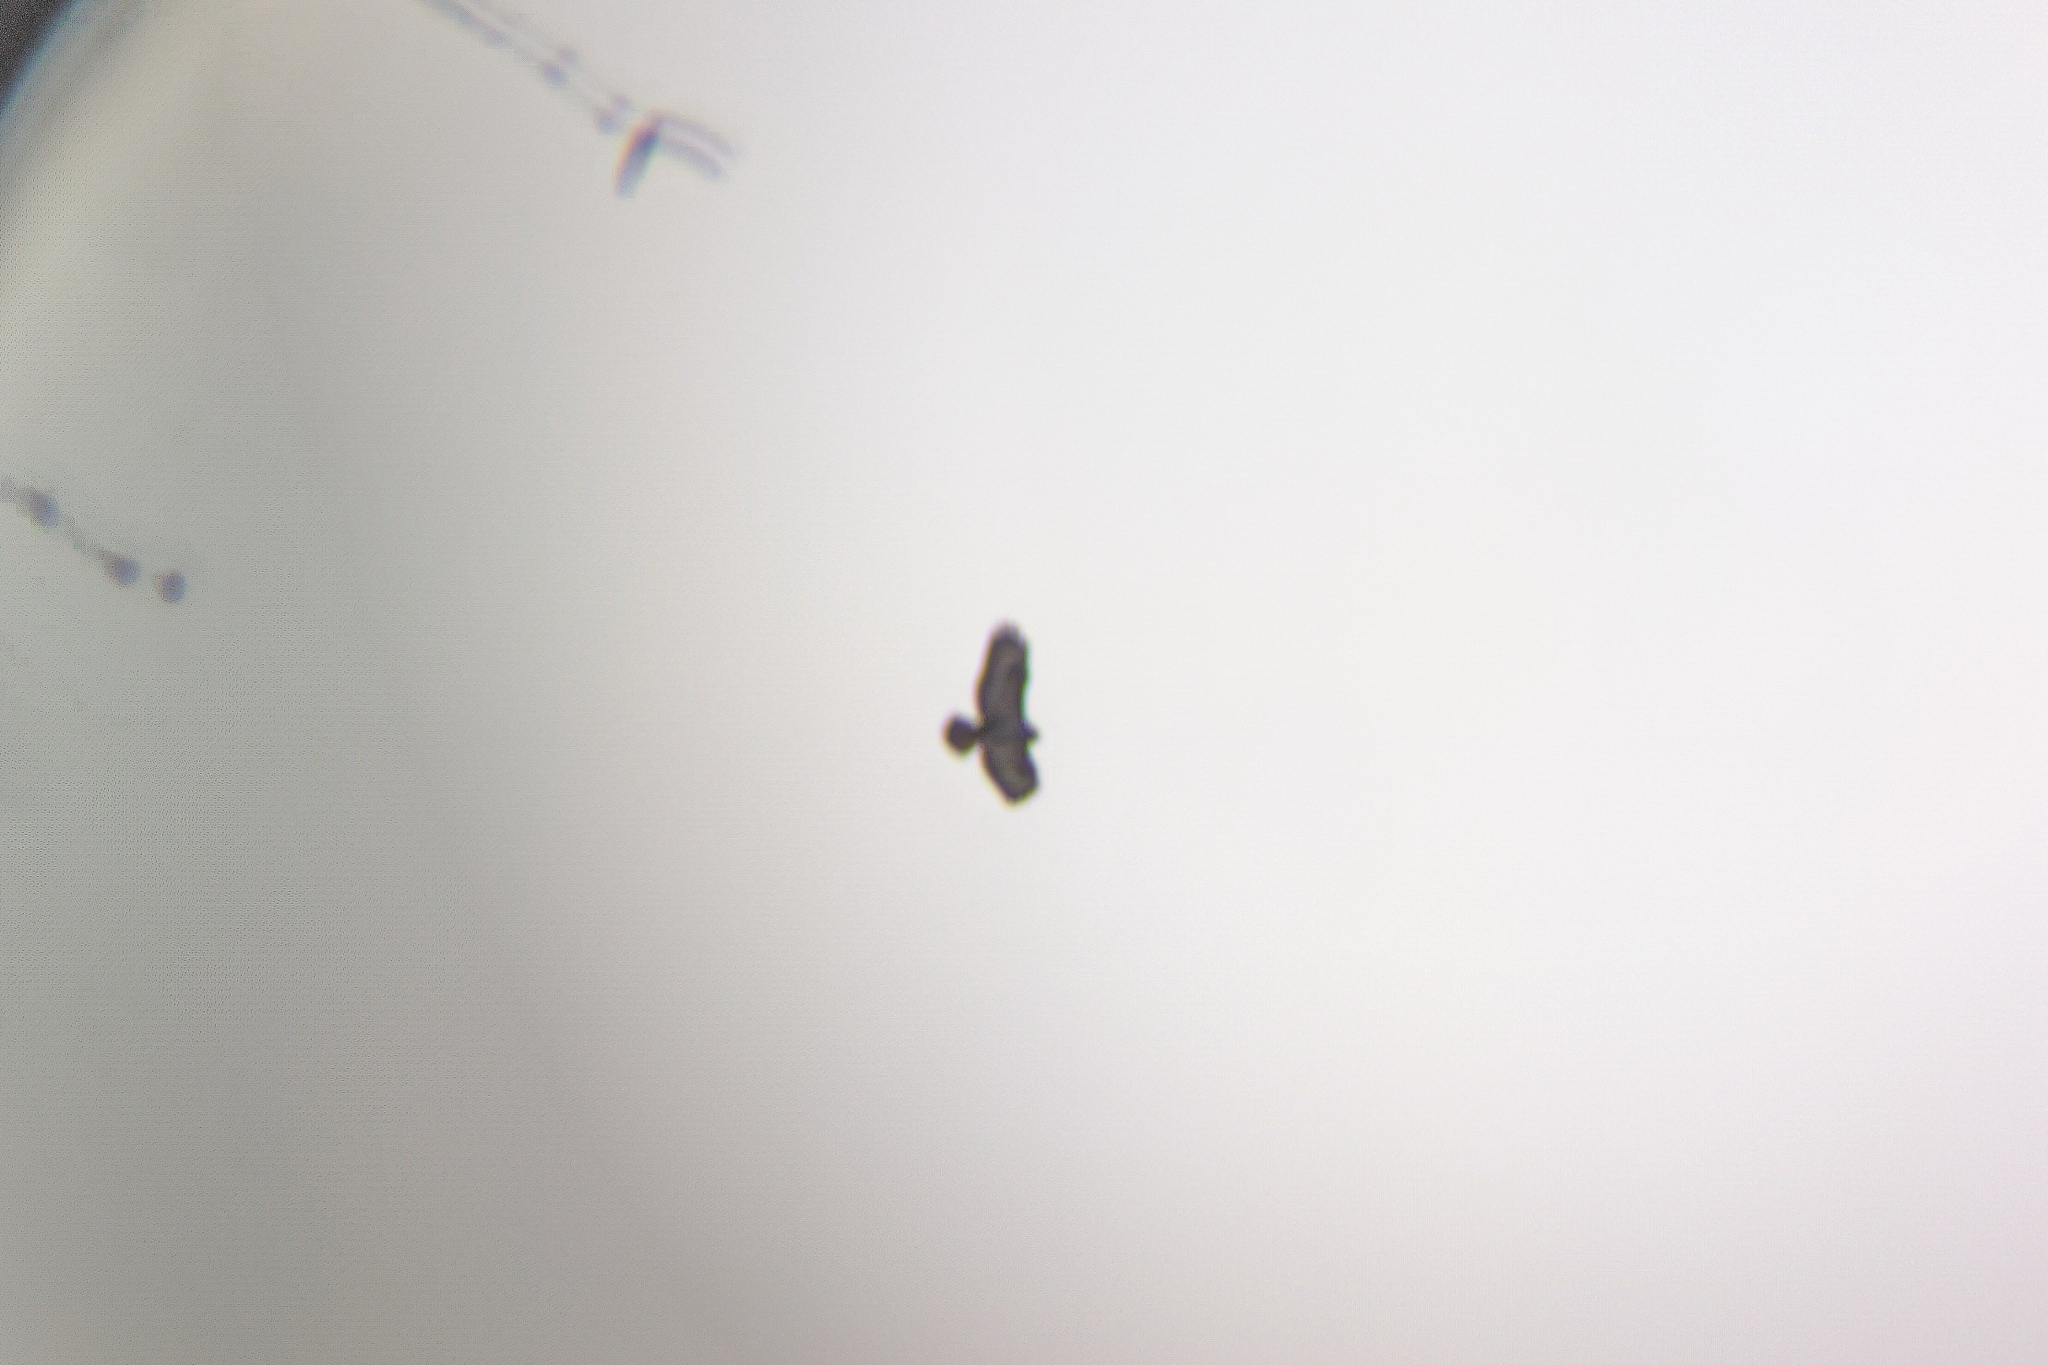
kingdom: Animalia
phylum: Chordata
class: Aves
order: Accipitriformes
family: Accipitridae
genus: Buteo
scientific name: Buteo buteo
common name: Common buzzard
